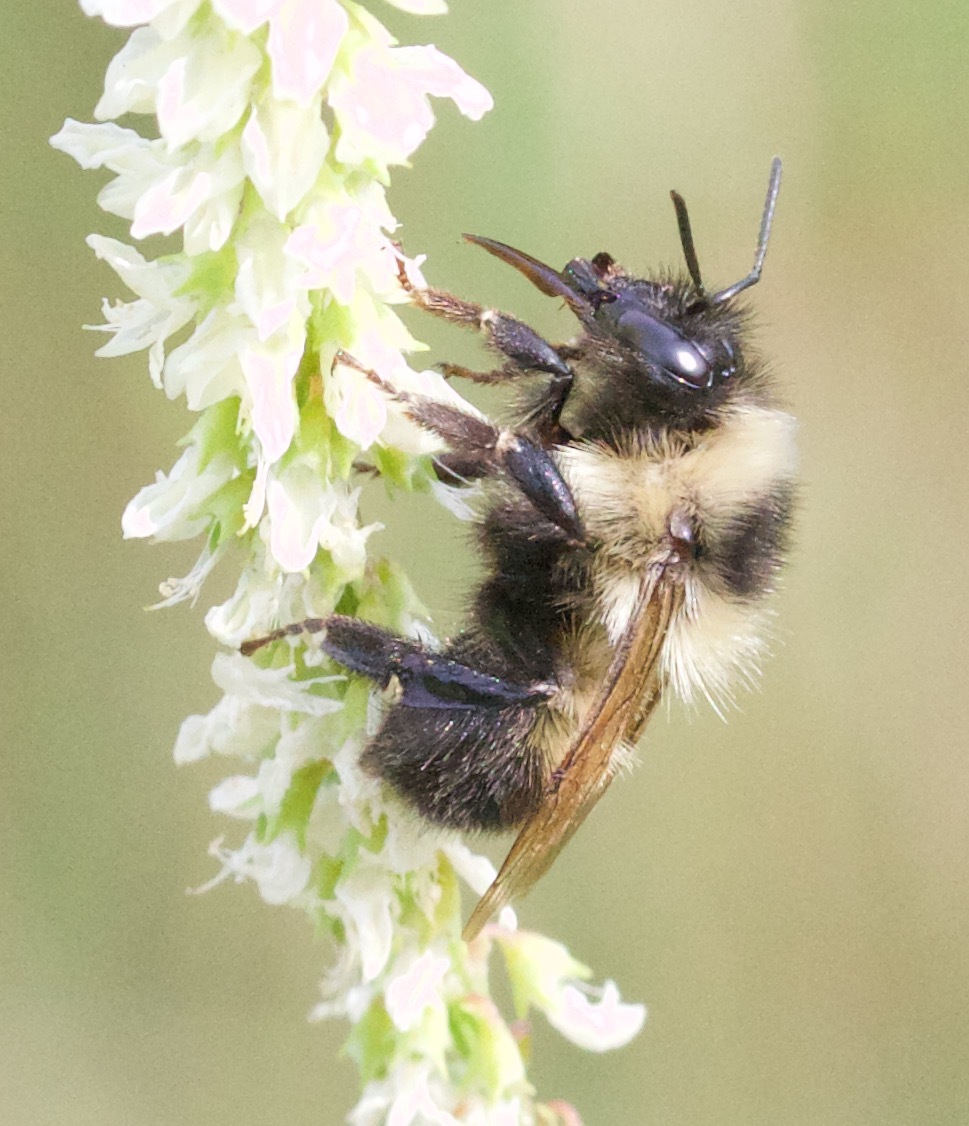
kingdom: Animalia
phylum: Arthropoda
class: Insecta
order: Hymenoptera
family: Apidae
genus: Bombus
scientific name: Bombus rufocinctus
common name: Red-belted bumble bee
